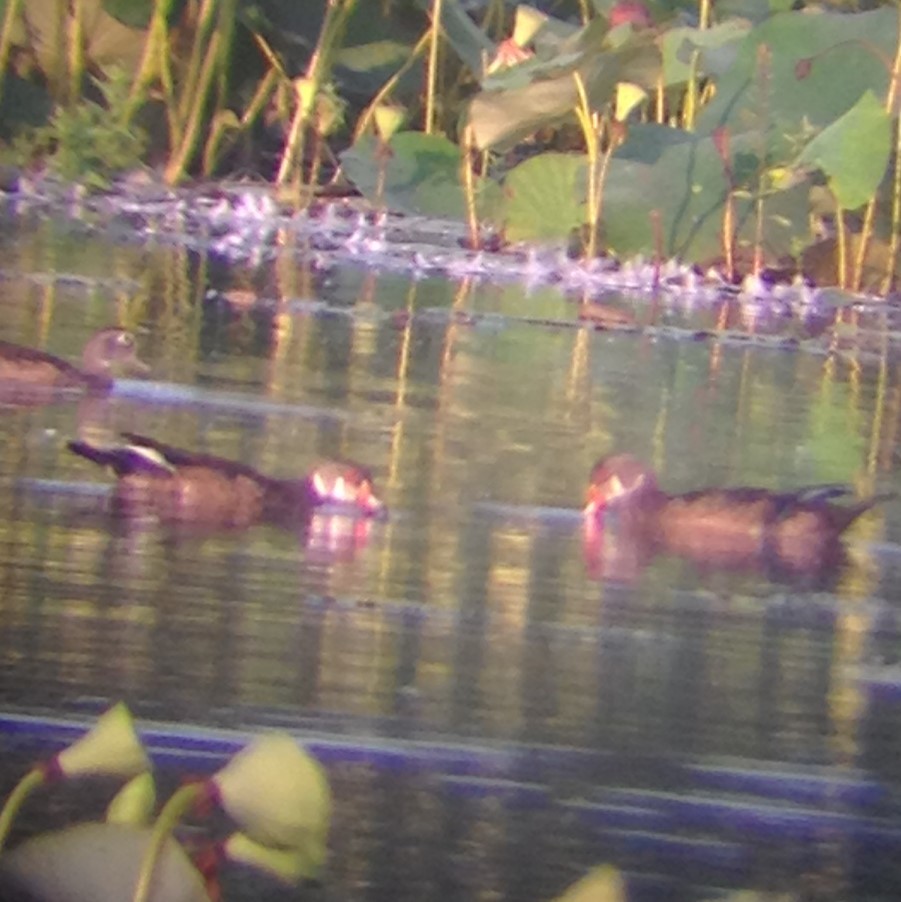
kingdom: Animalia
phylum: Chordata
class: Aves
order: Anseriformes
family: Anatidae
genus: Aix
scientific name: Aix sponsa
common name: Wood duck
